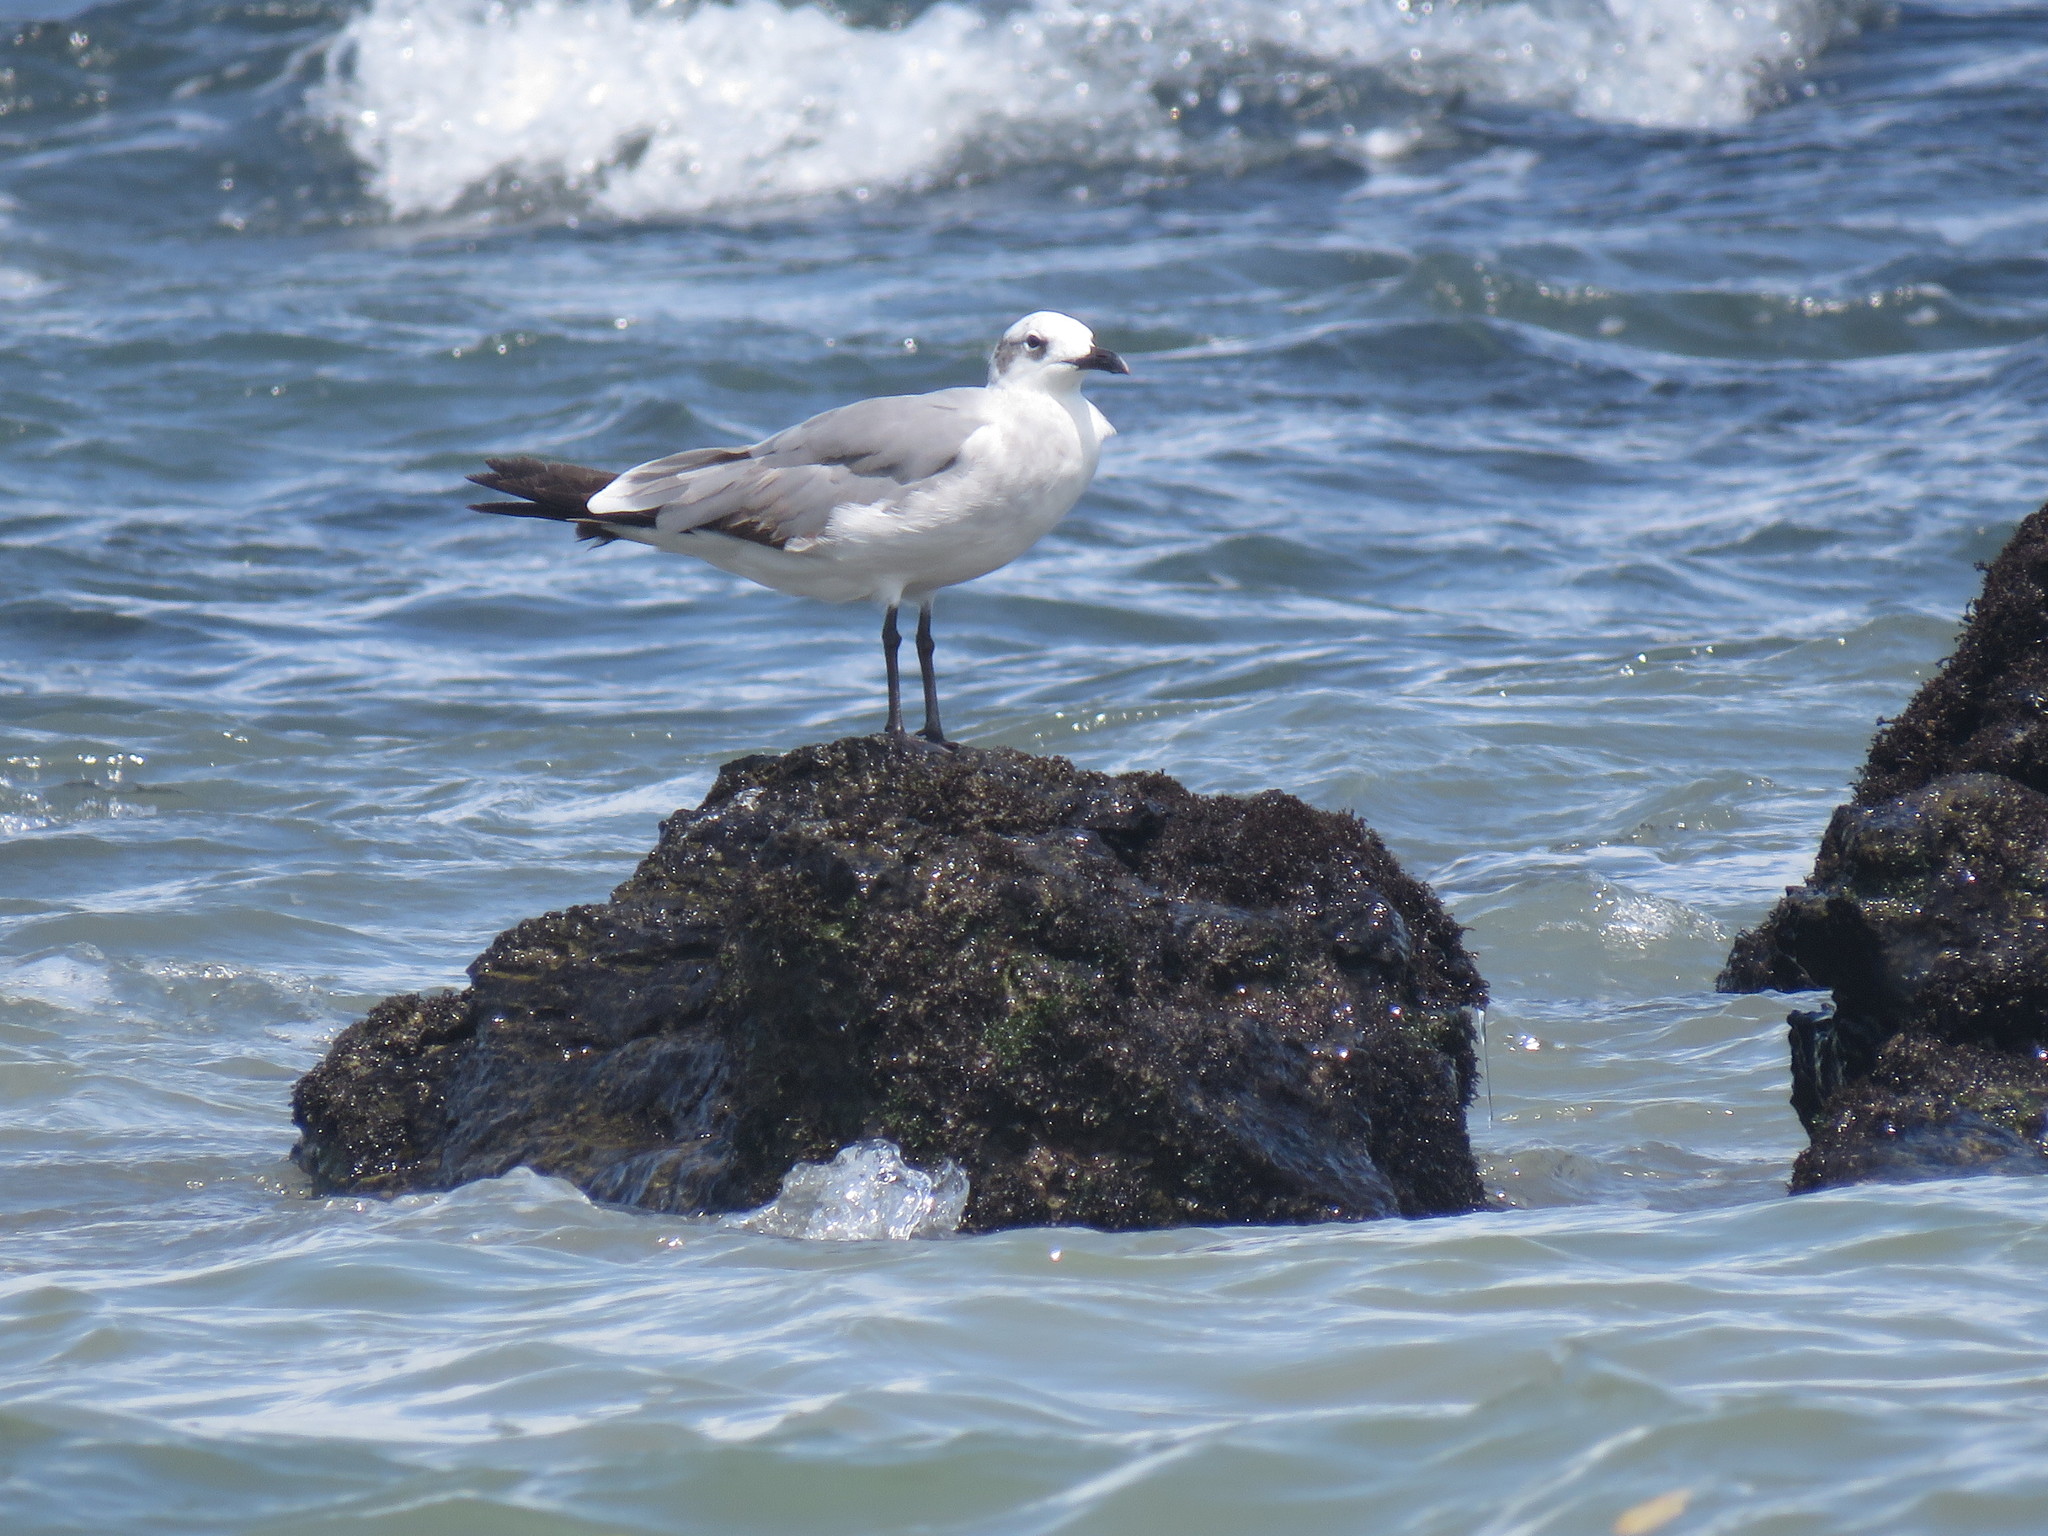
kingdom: Animalia
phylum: Chordata
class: Aves
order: Charadriiformes
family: Laridae
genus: Leucophaeus
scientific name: Leucophaeus atricilla
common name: Laughing gull
